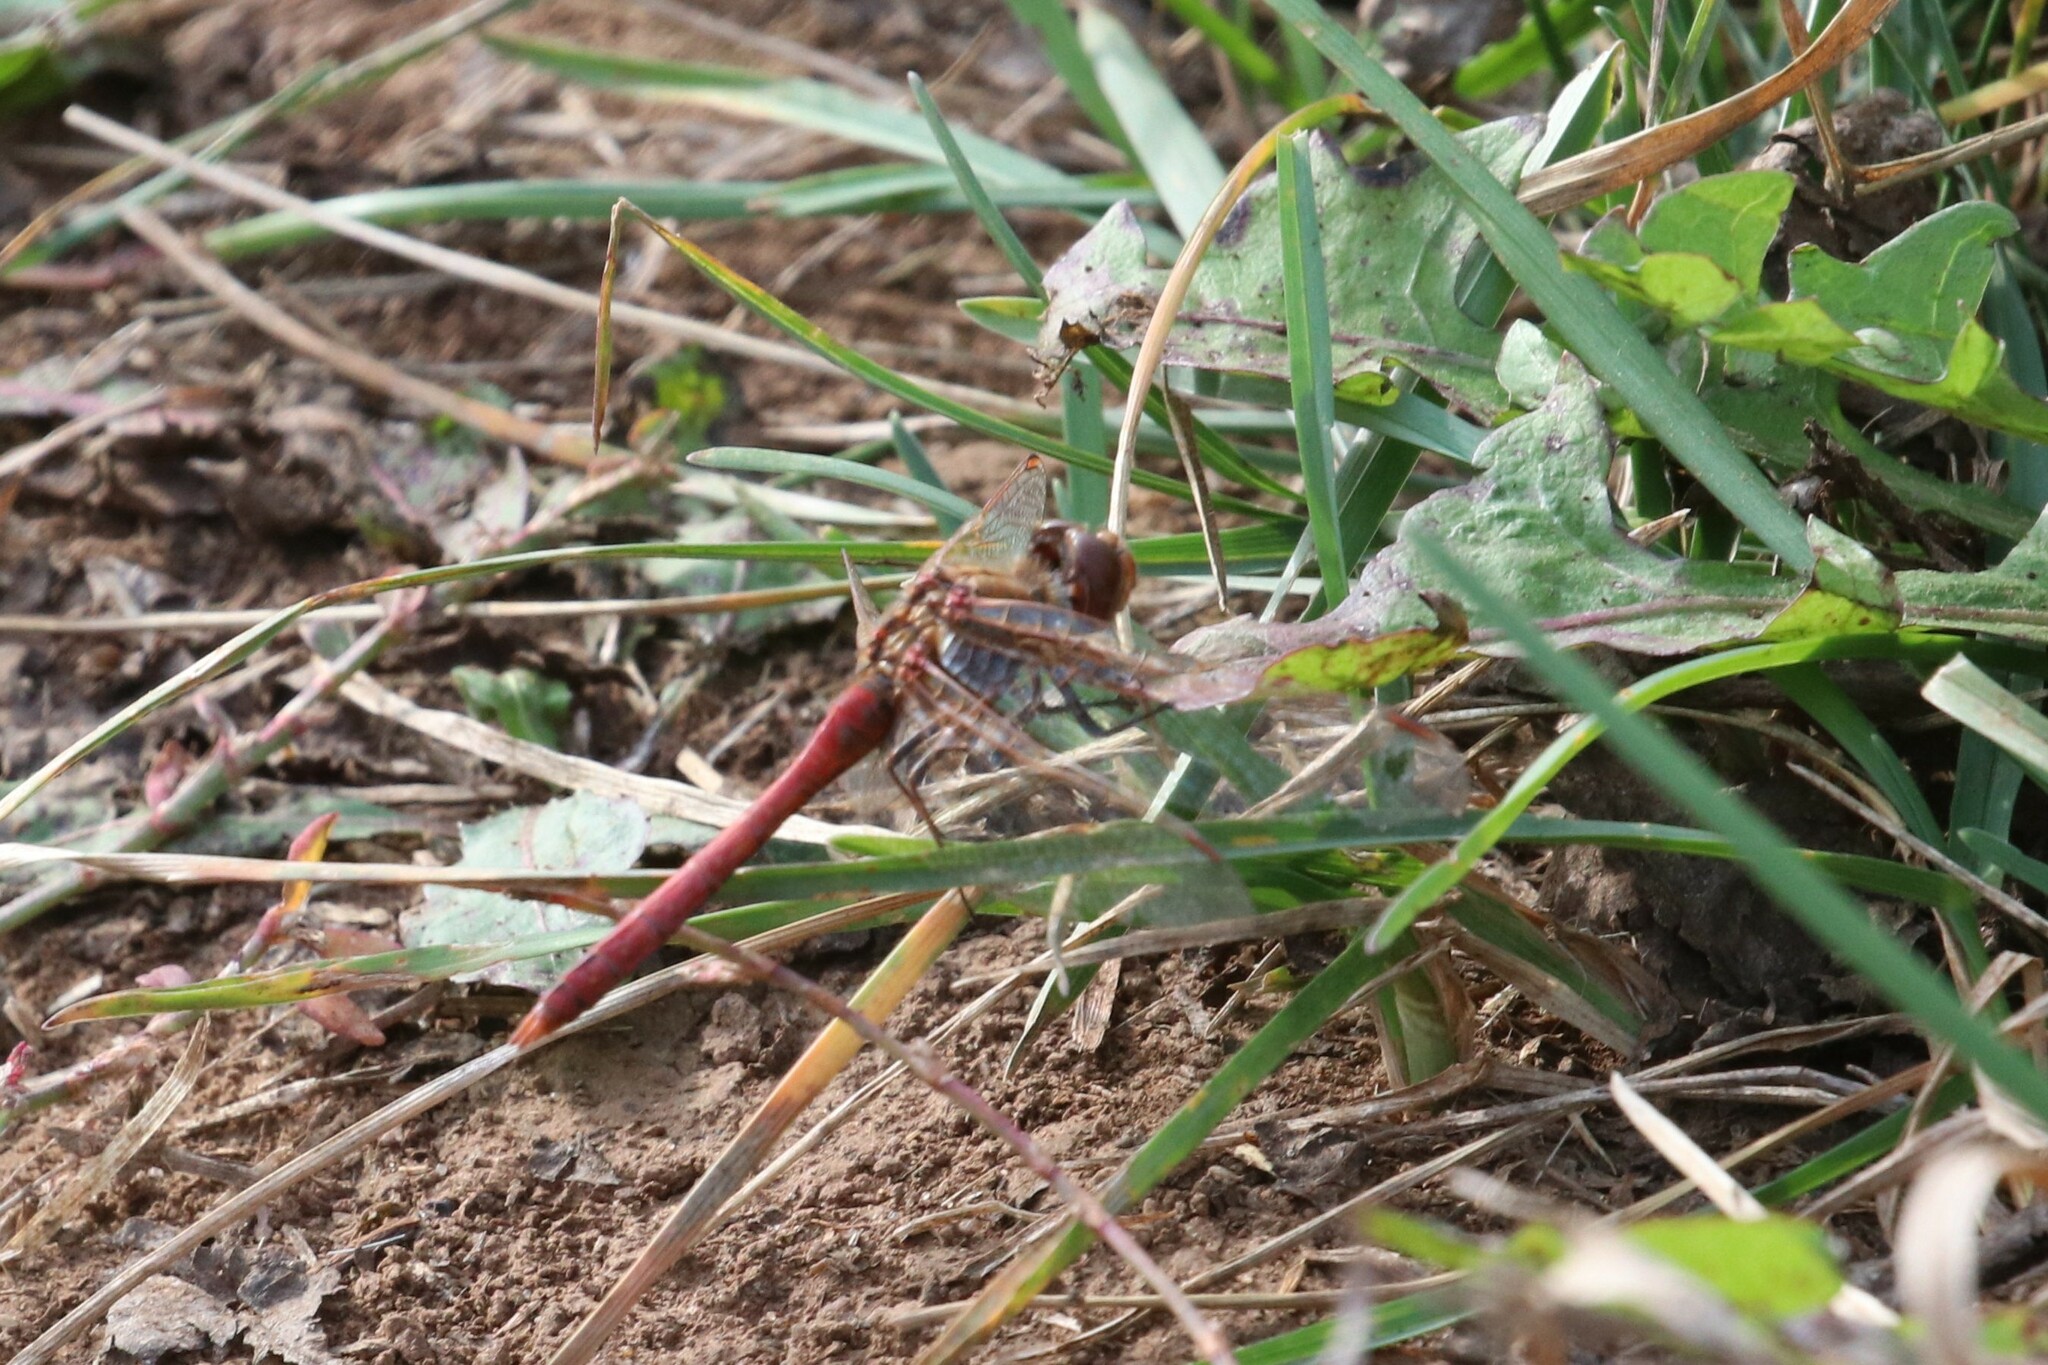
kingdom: Animalia
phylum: Arthropoda
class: Insecta
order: Odonata
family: Libellulidae
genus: Sympetrum
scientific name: Sympetrum vulgatum
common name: Vagrant darter
